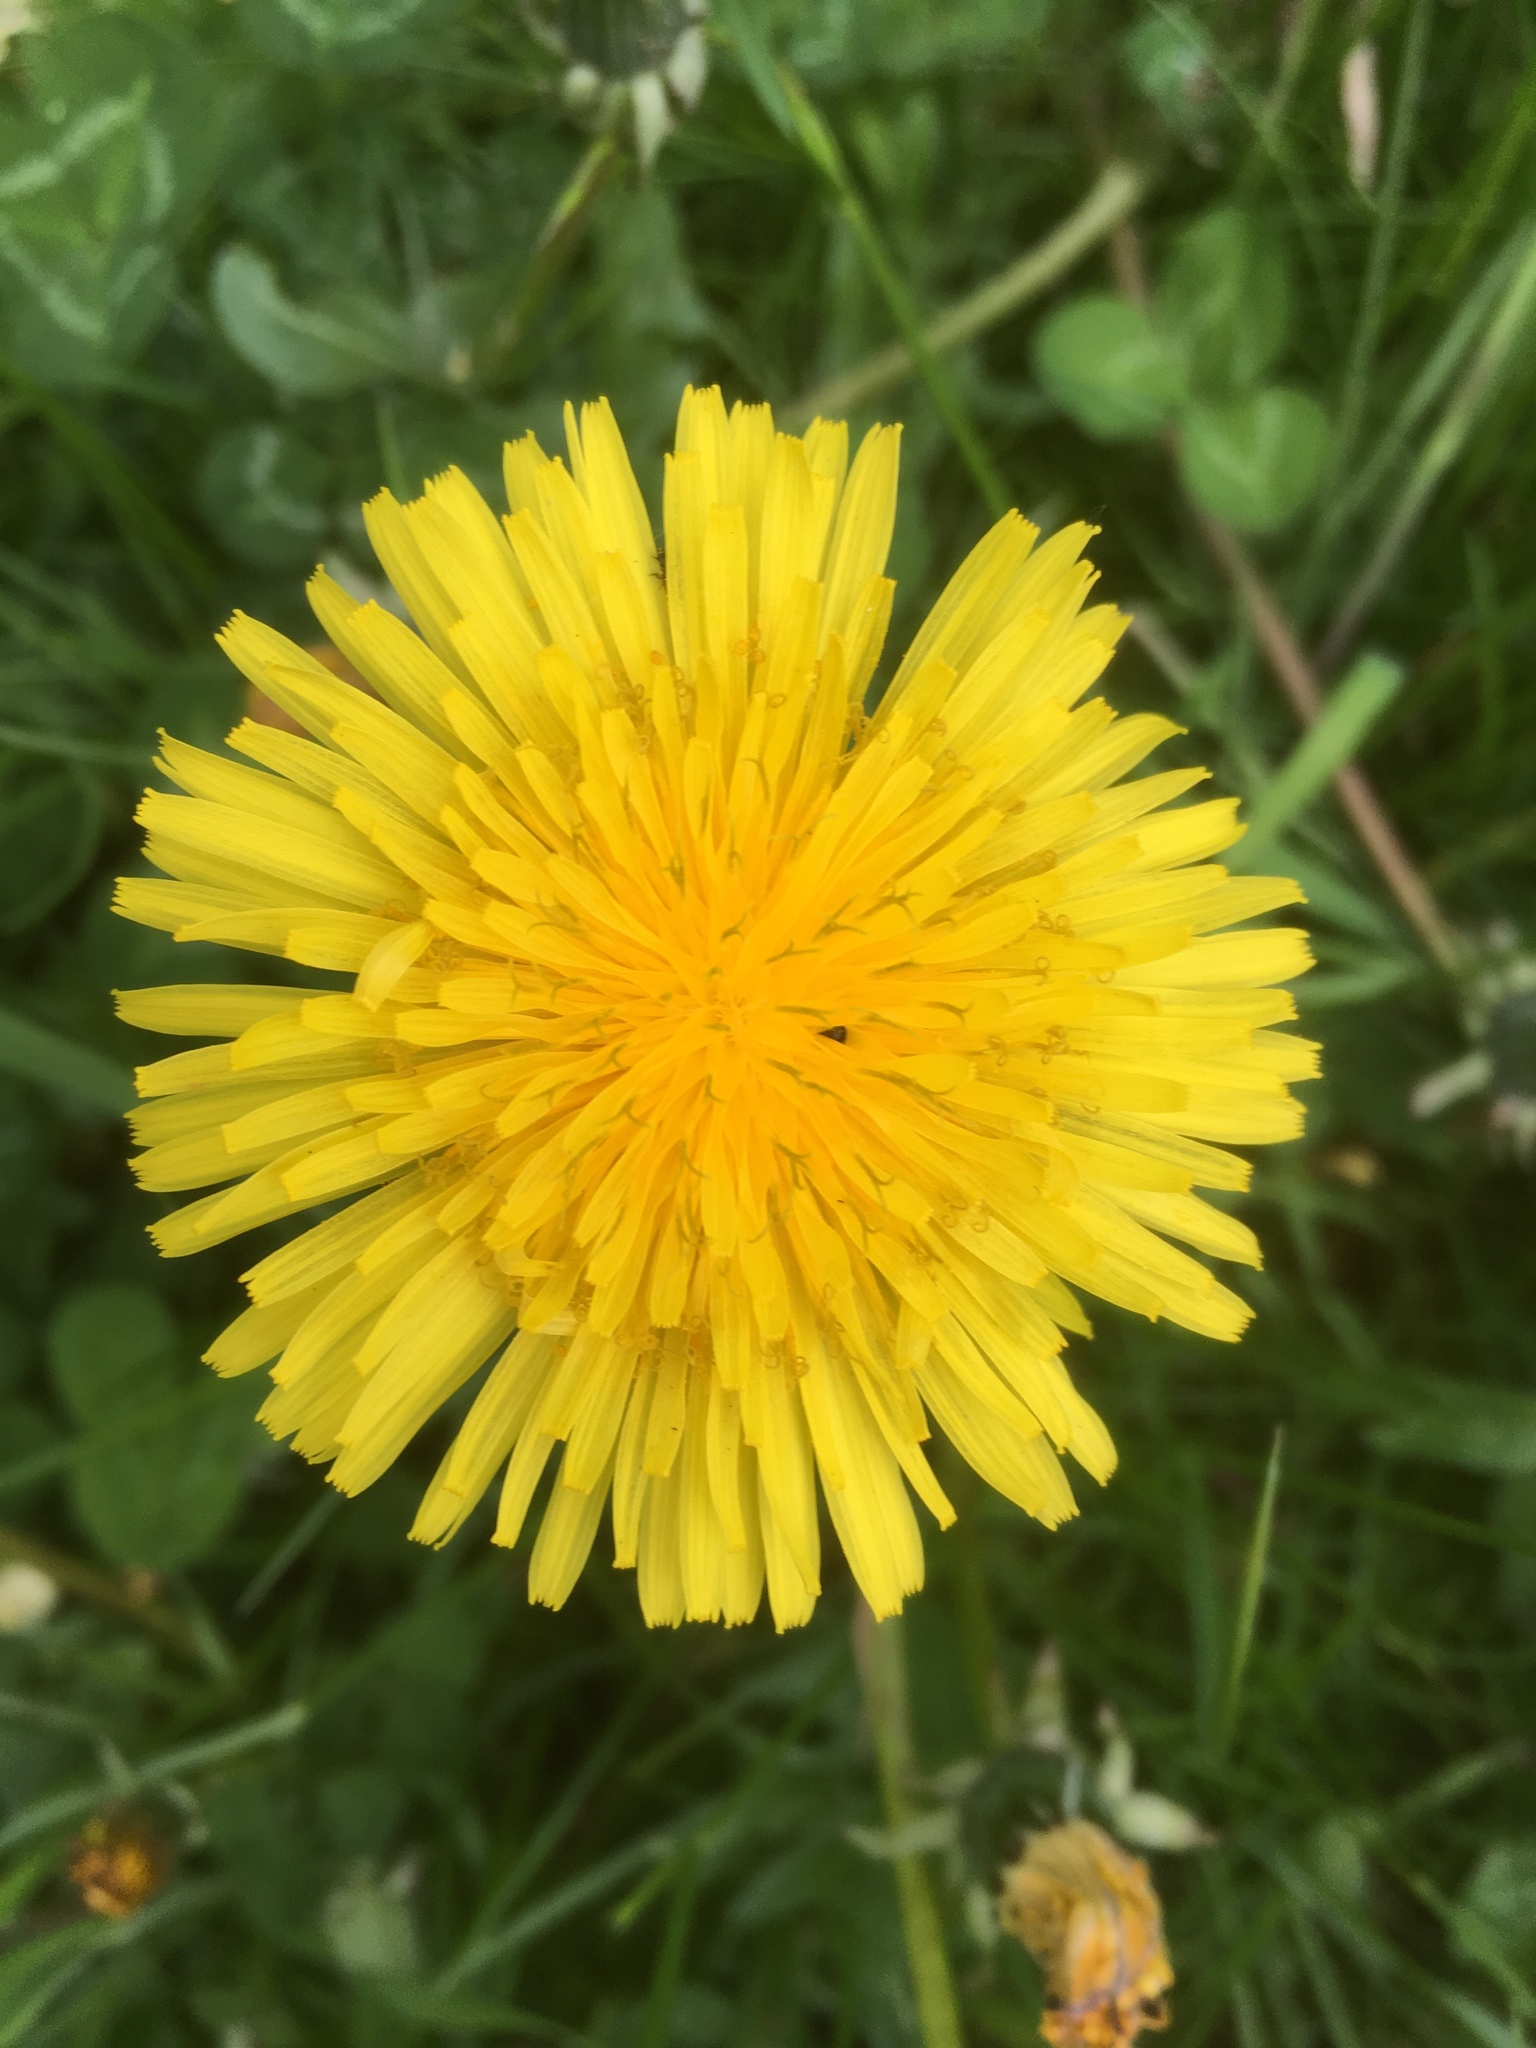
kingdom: Plantae
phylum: Tracheophyta
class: Magnoliopsida
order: Asterales
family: Asteraceae
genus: Taraxacum
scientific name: Taraxacum officinale
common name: Common dandelion
